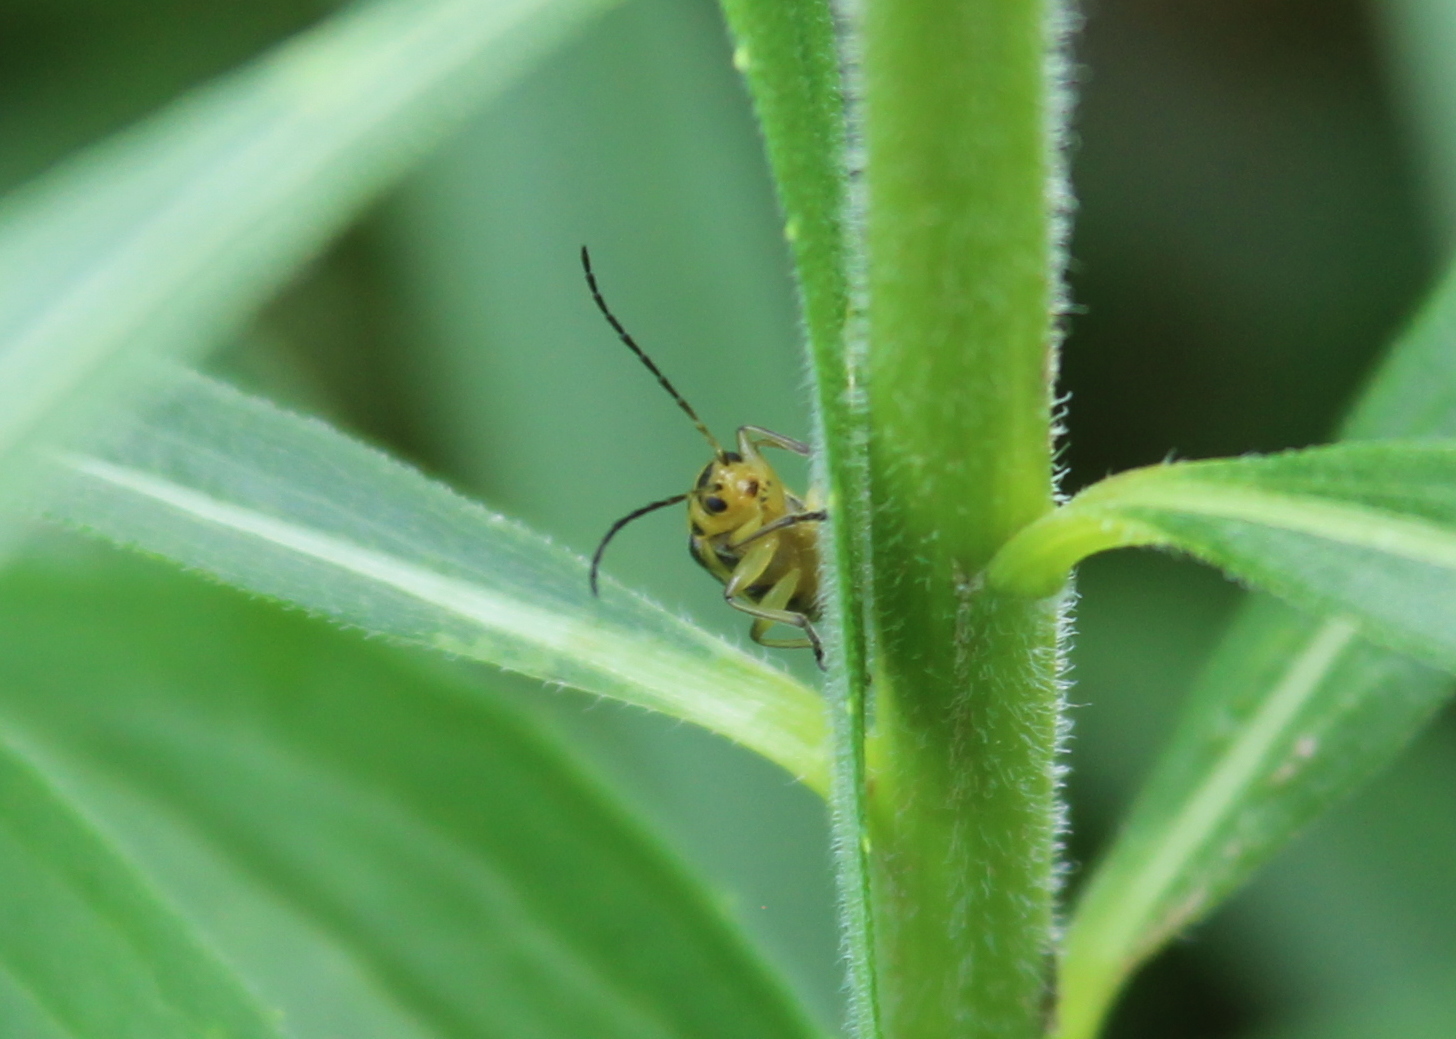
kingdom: Animalia
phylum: Arthropoda
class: Insecta
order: Coleoptera
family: Chrysomelidae
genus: Trirhabda
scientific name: Trirhabda canadensis
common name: Goldenrod leaf beetle
